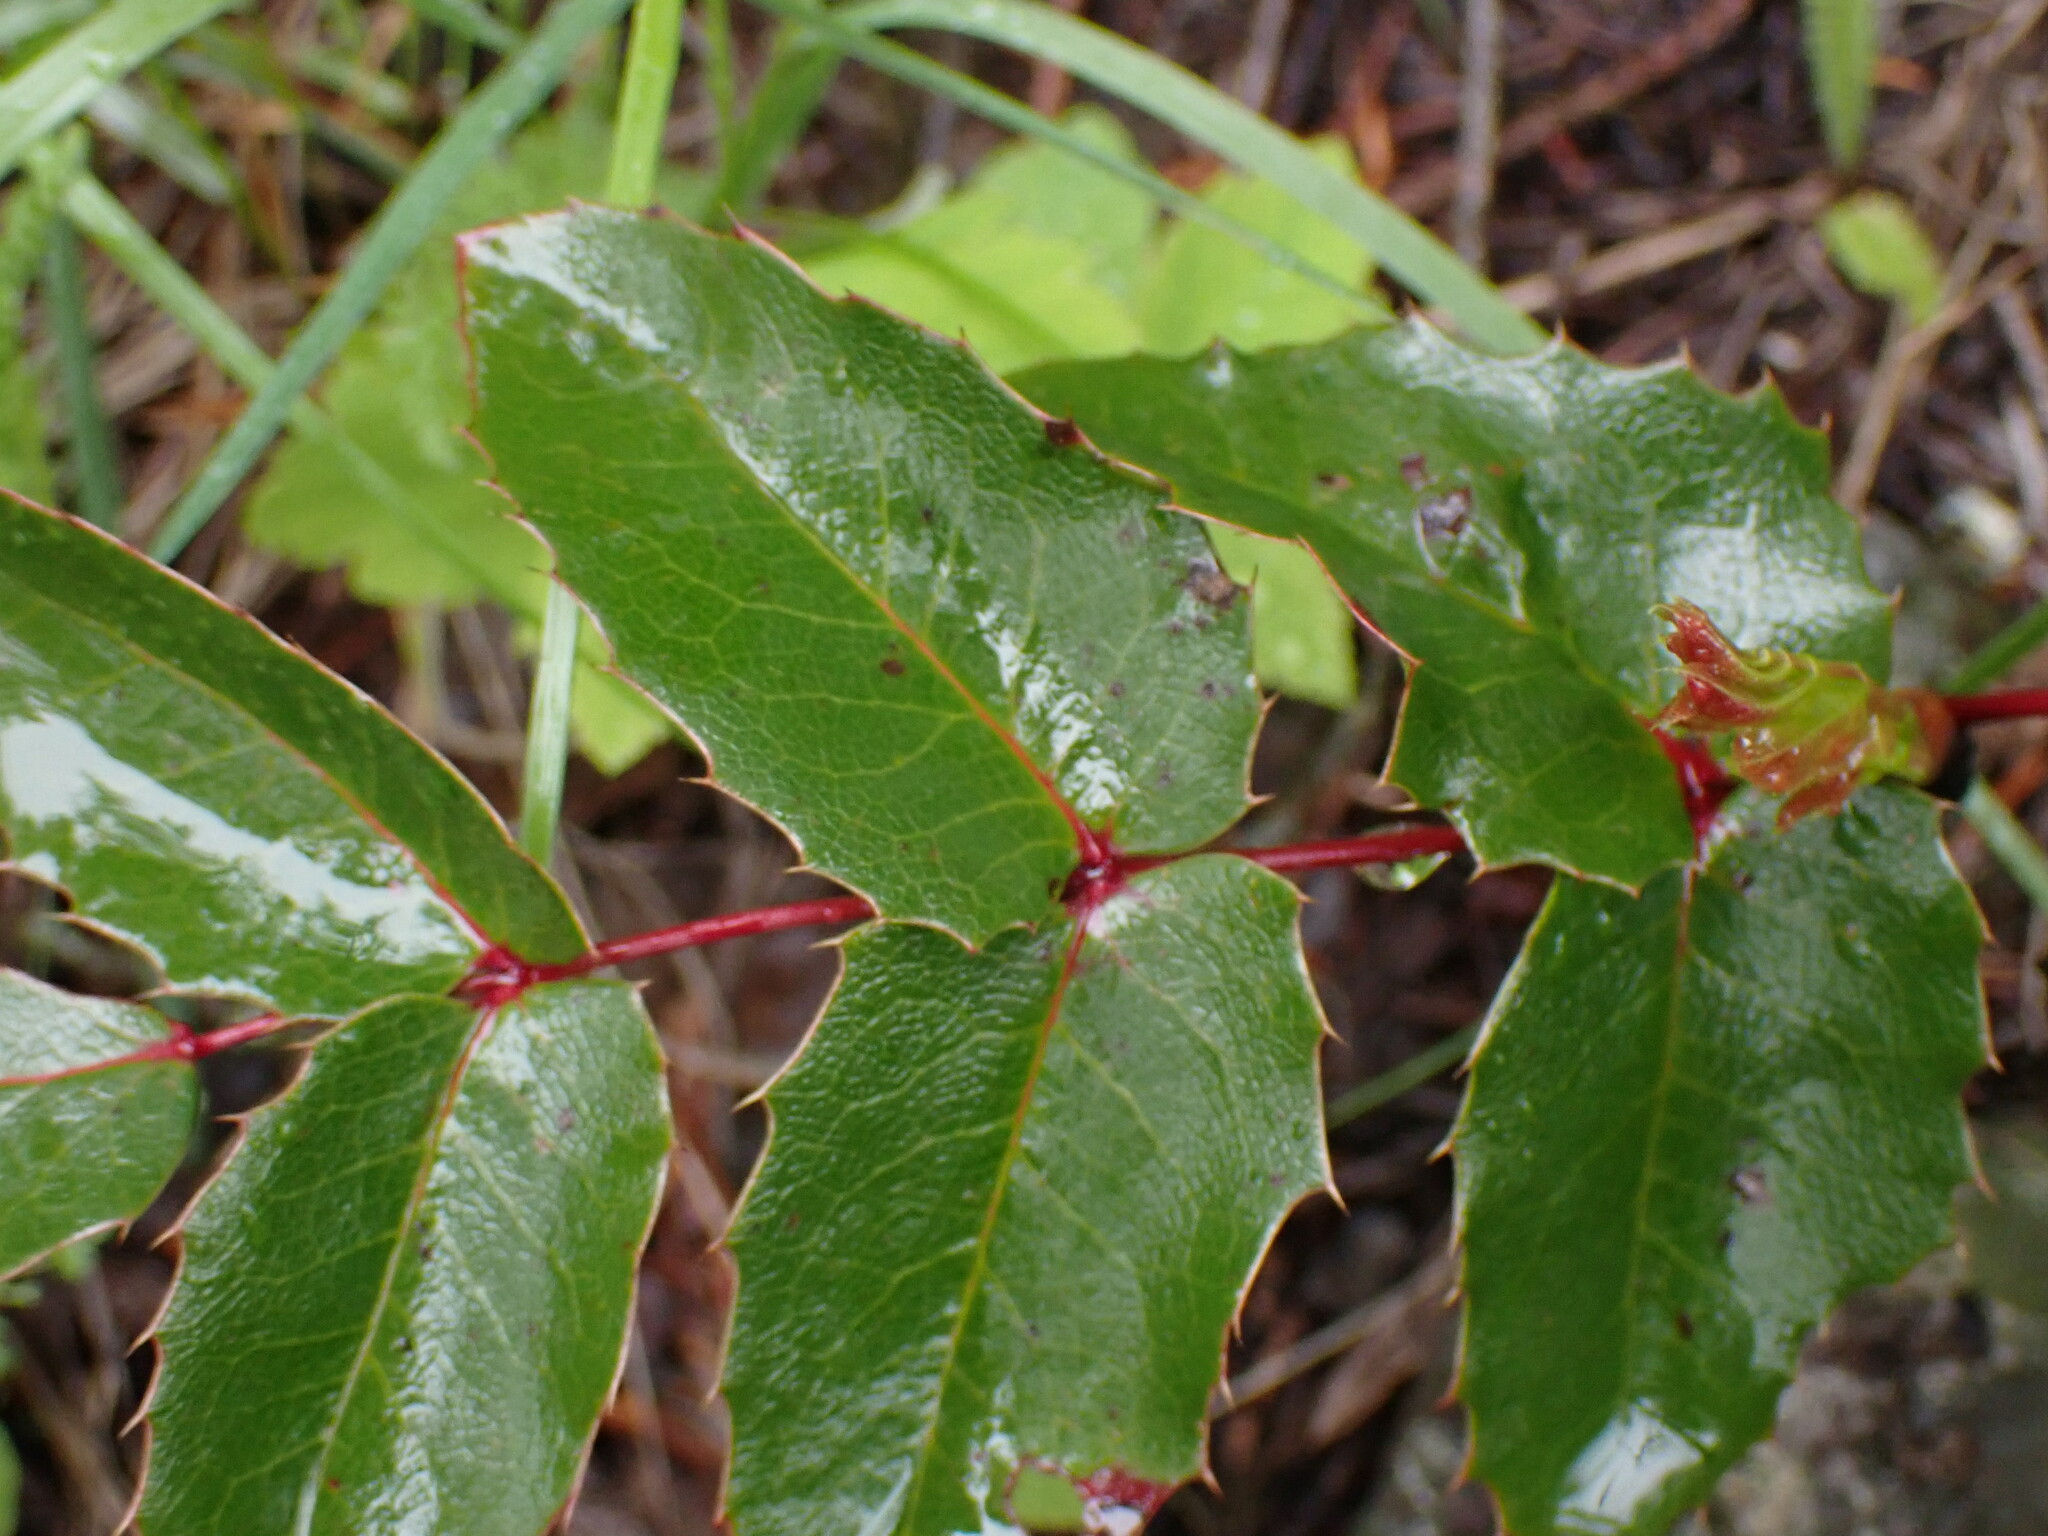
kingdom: Plantae
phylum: Tracheophyta
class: Magnoliopsida
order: Ranunculales
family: Berberidaceae
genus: Mahonia
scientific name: Mahonia aquifolium
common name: Oregon-grape
